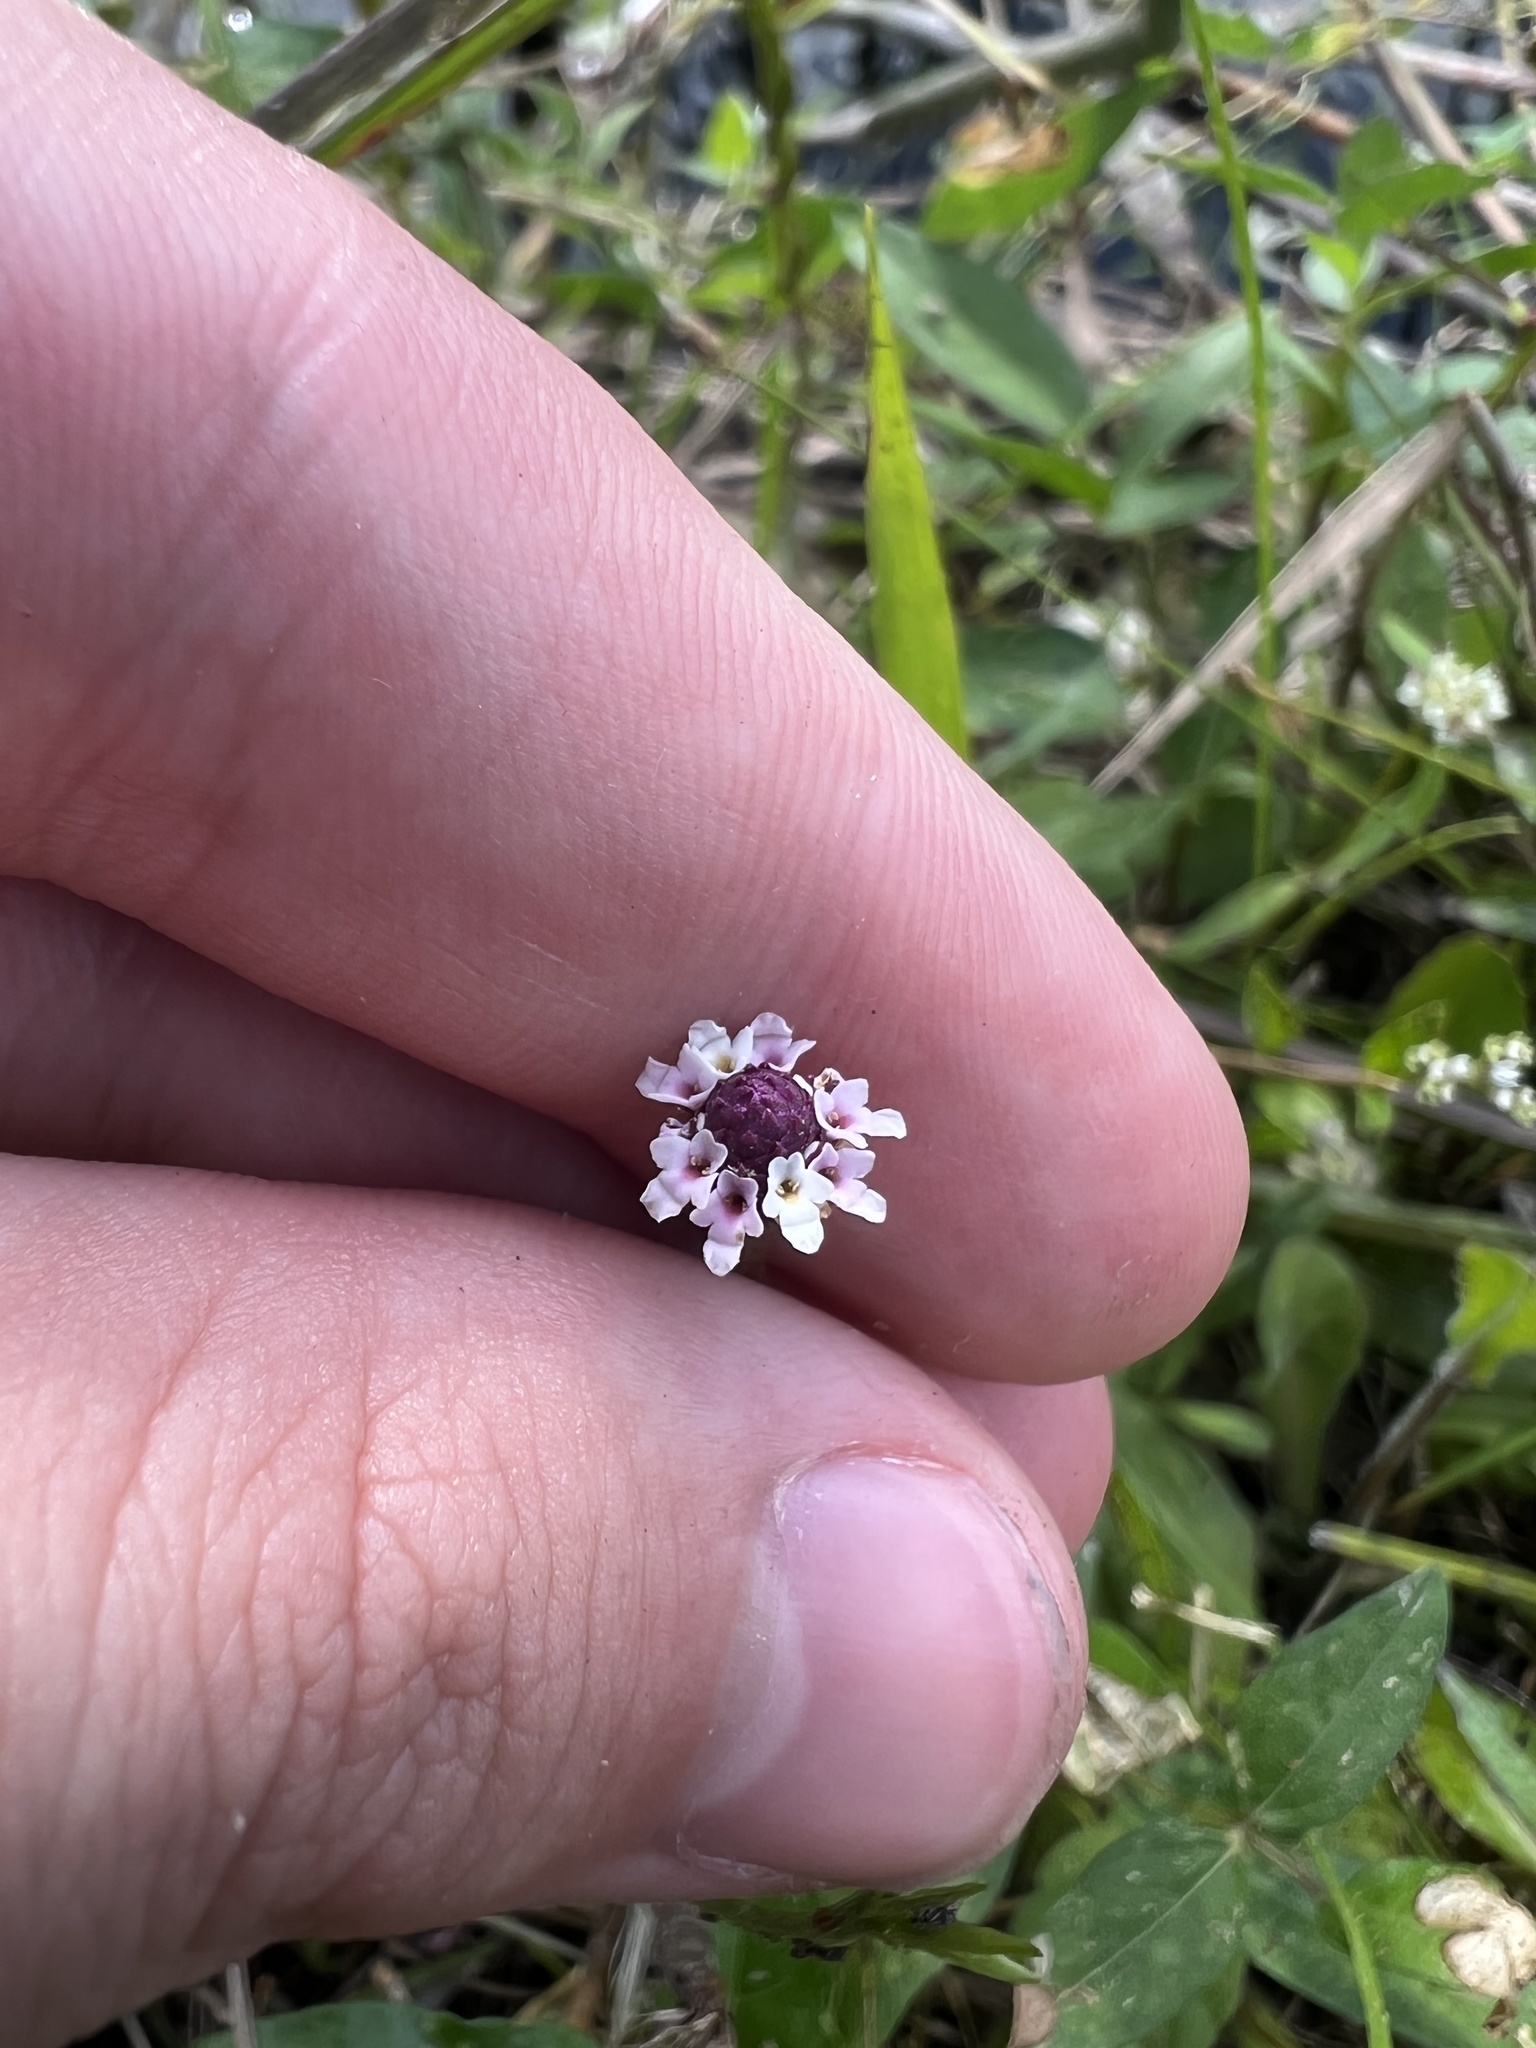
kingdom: Plantae
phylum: Tracheophyta
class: Magnoliopsida
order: Lamiales
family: Verbenaceae
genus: Phyla
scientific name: Phyla nodiflora
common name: Frogfruit
